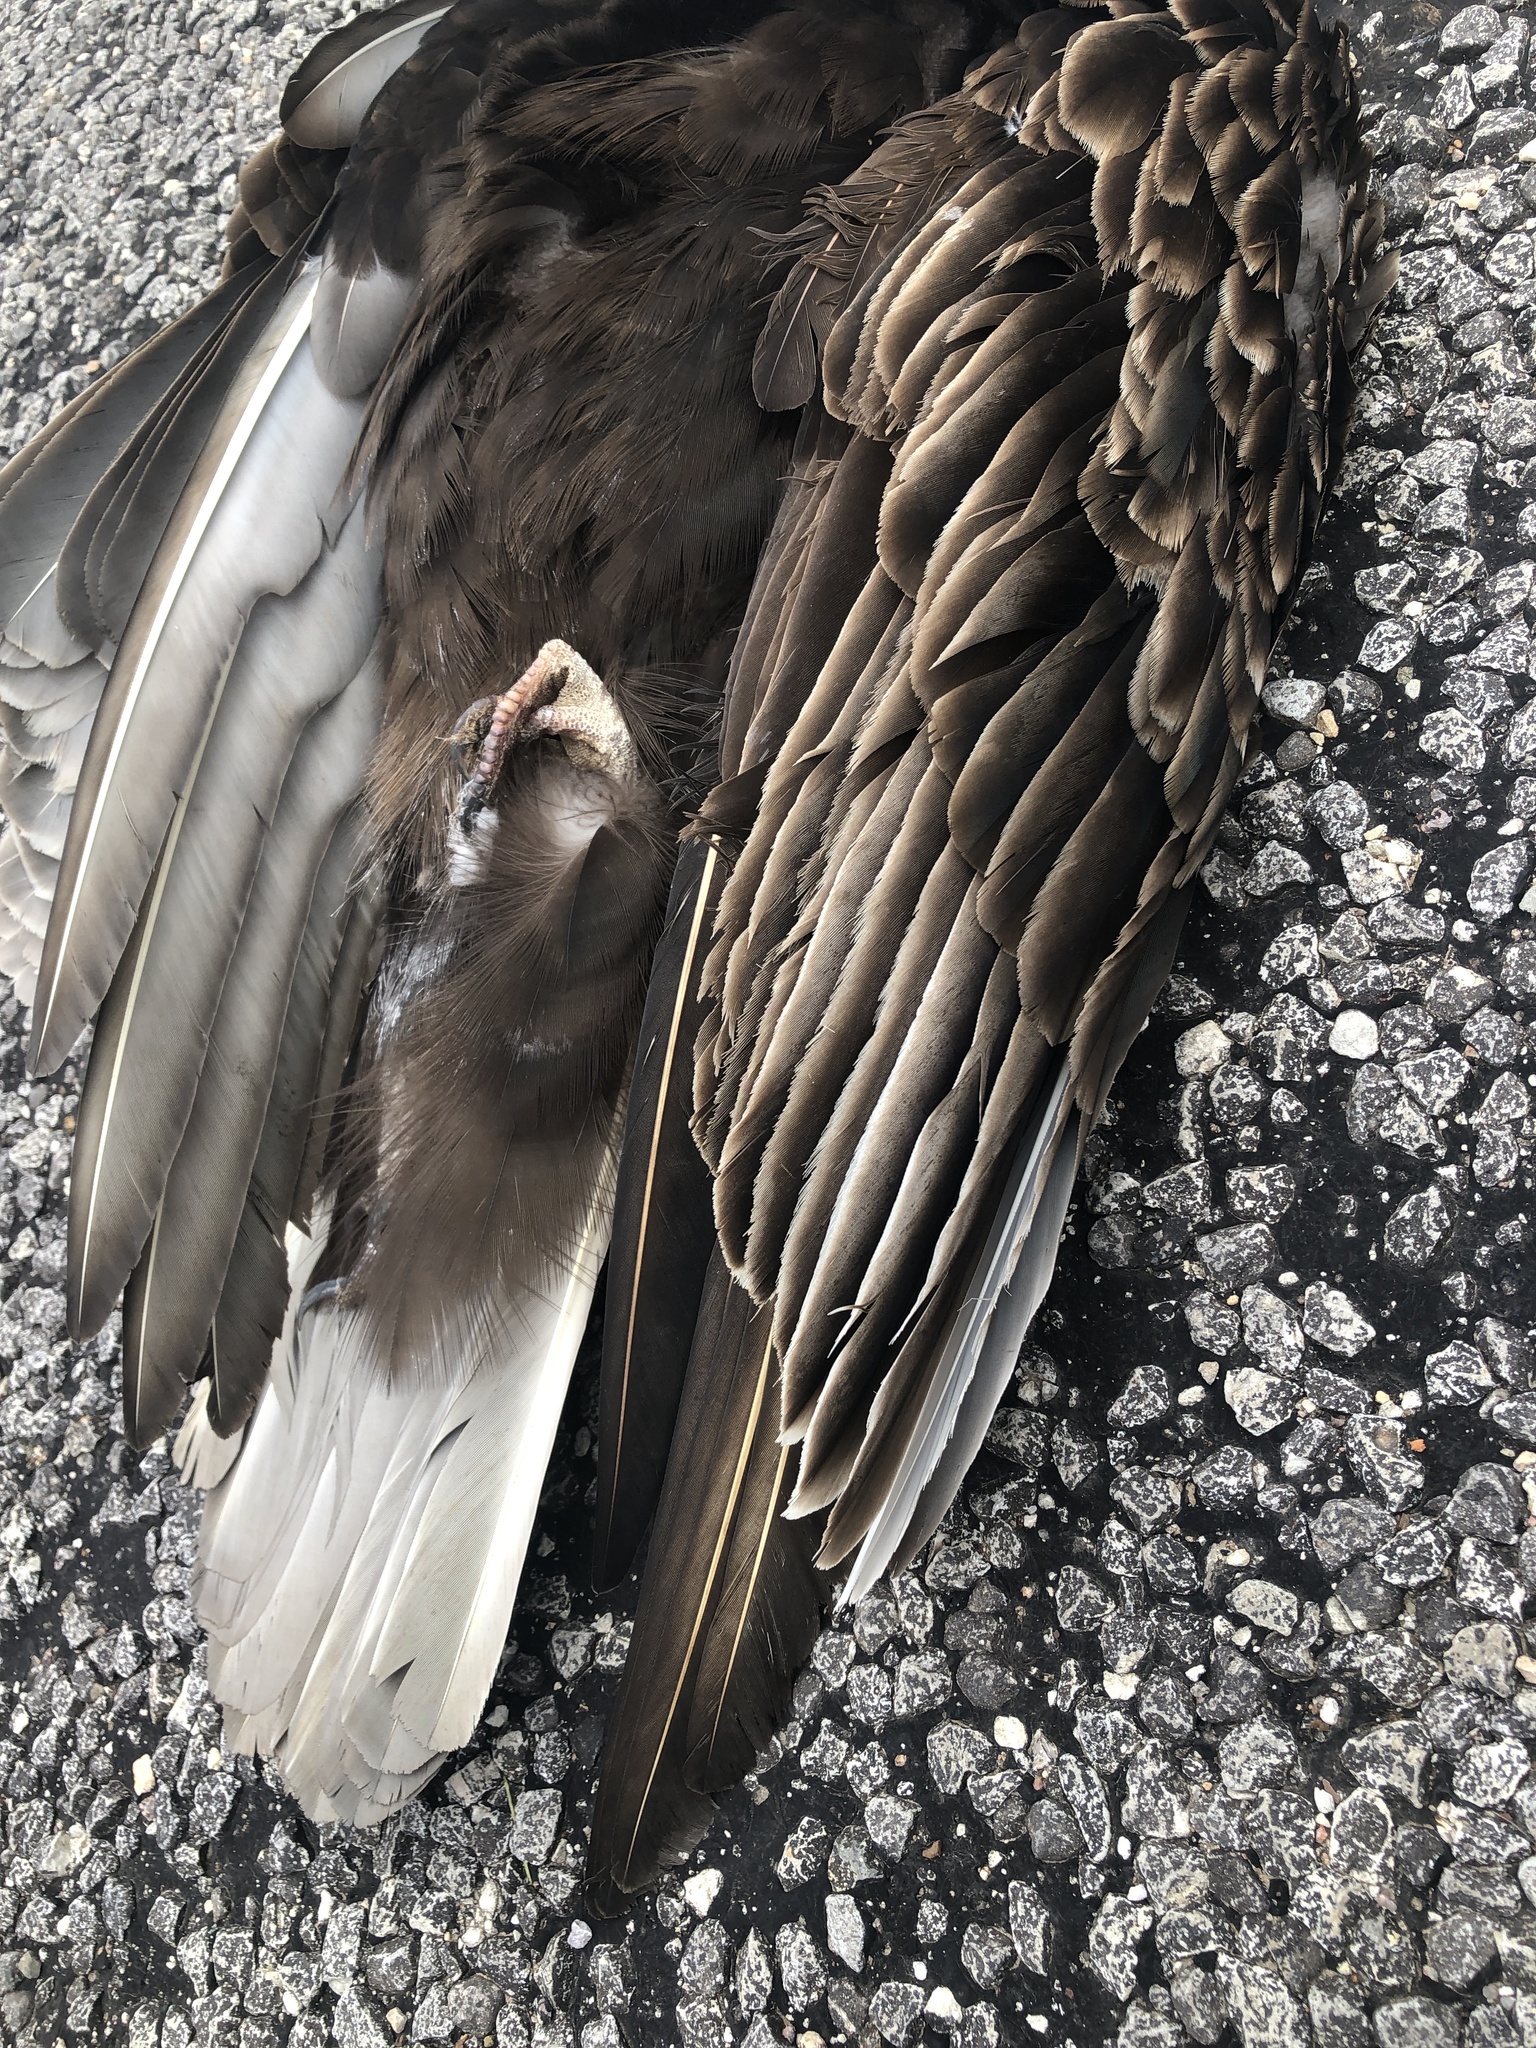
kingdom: Animalia
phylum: Chordata
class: Aves
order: Accipitriformes
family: Cathartidae
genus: Cathartes
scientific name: Cathartes aura
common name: Turkey vulture
